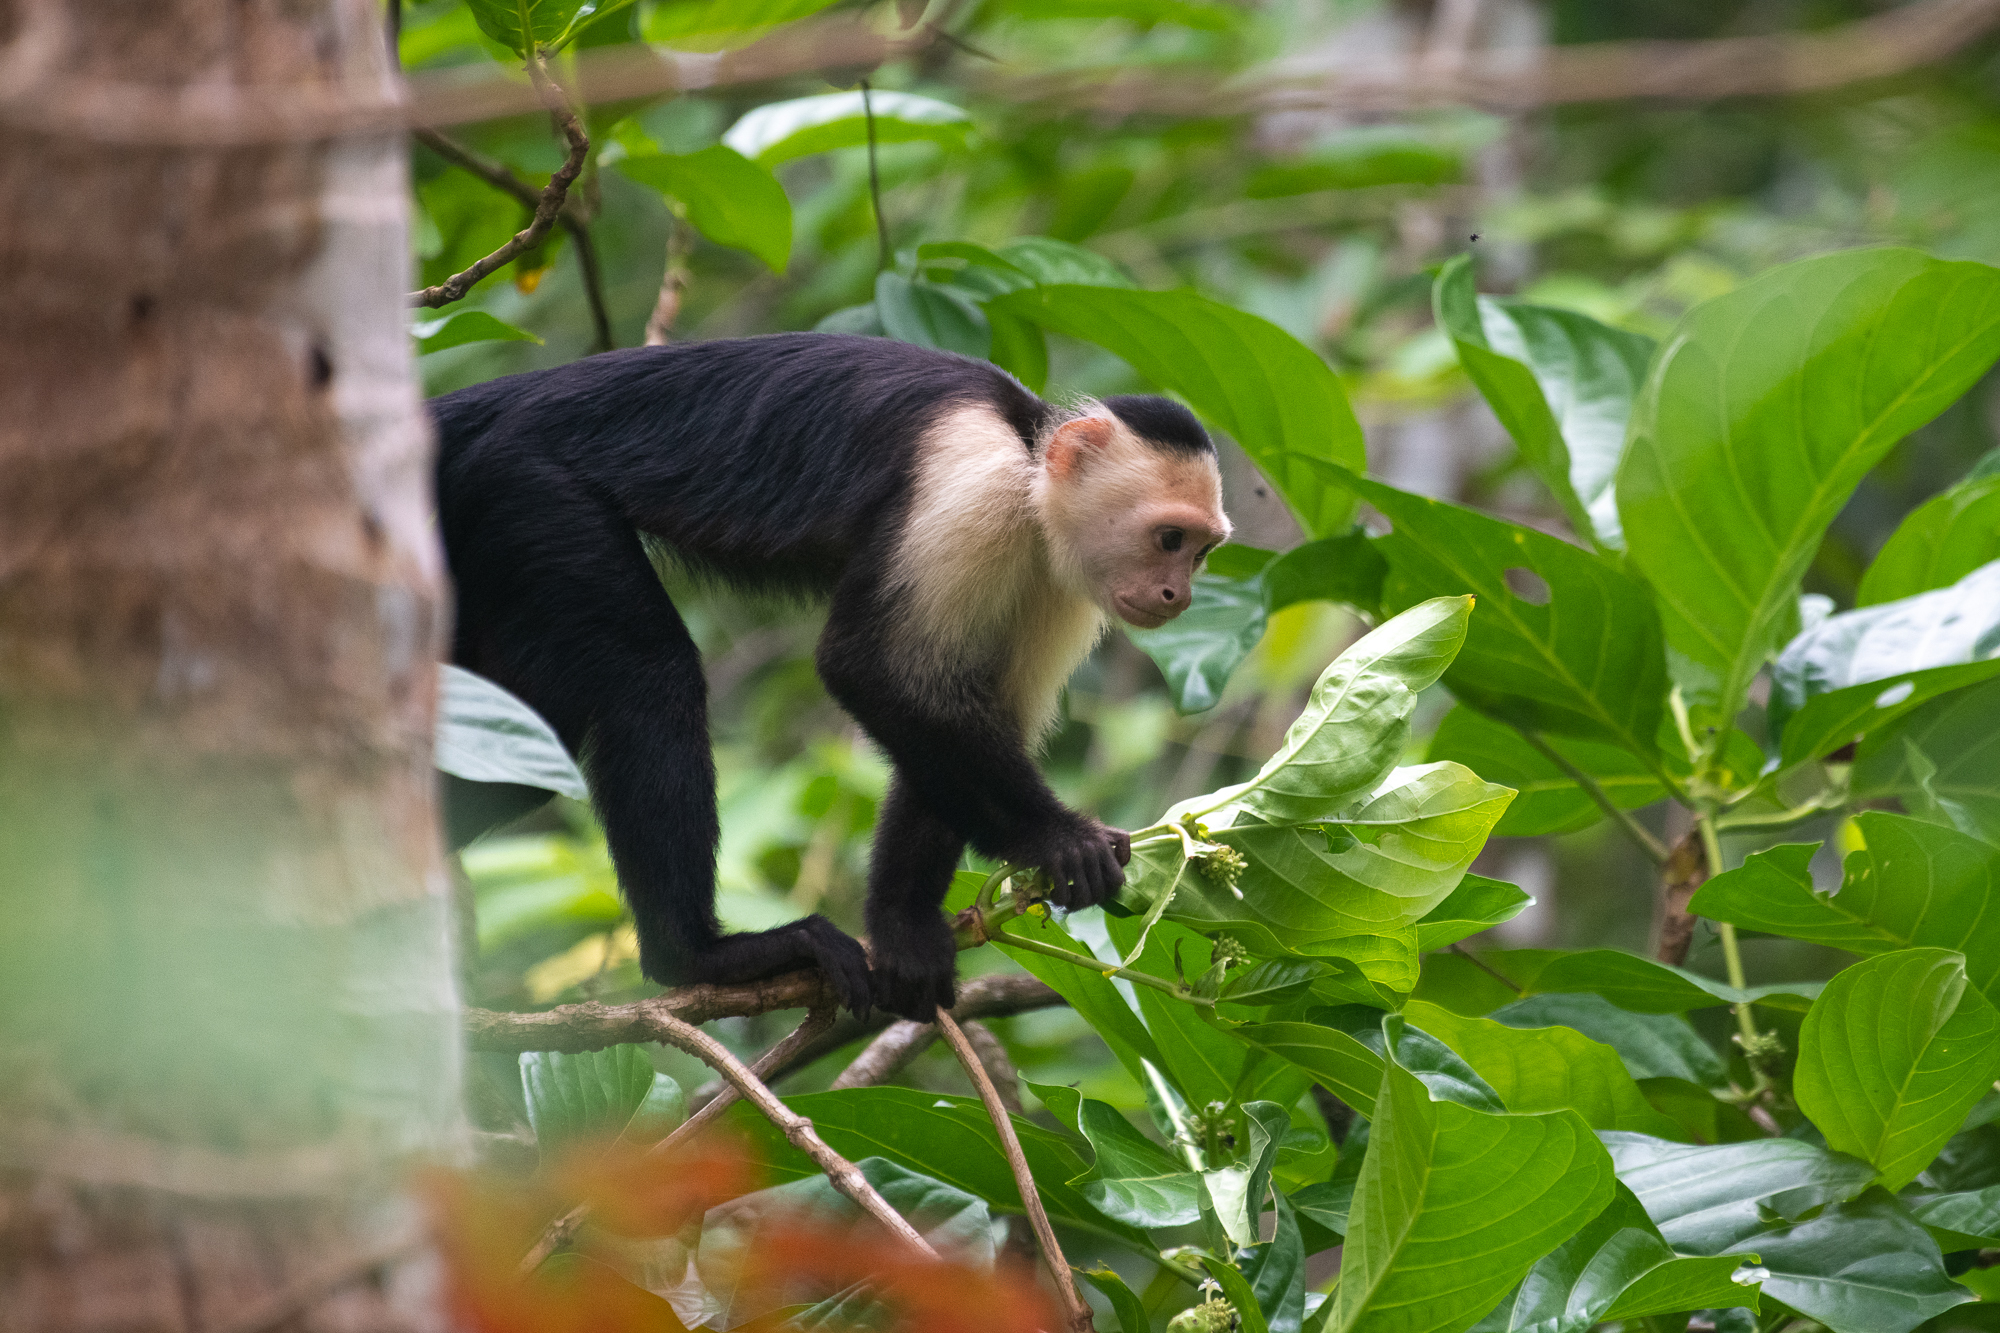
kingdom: Animalia
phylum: Chordata
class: Mammalia
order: Primates
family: Cebidae
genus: Cebus
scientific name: Cebus imitator
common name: Panamanian white-faced capuchin
